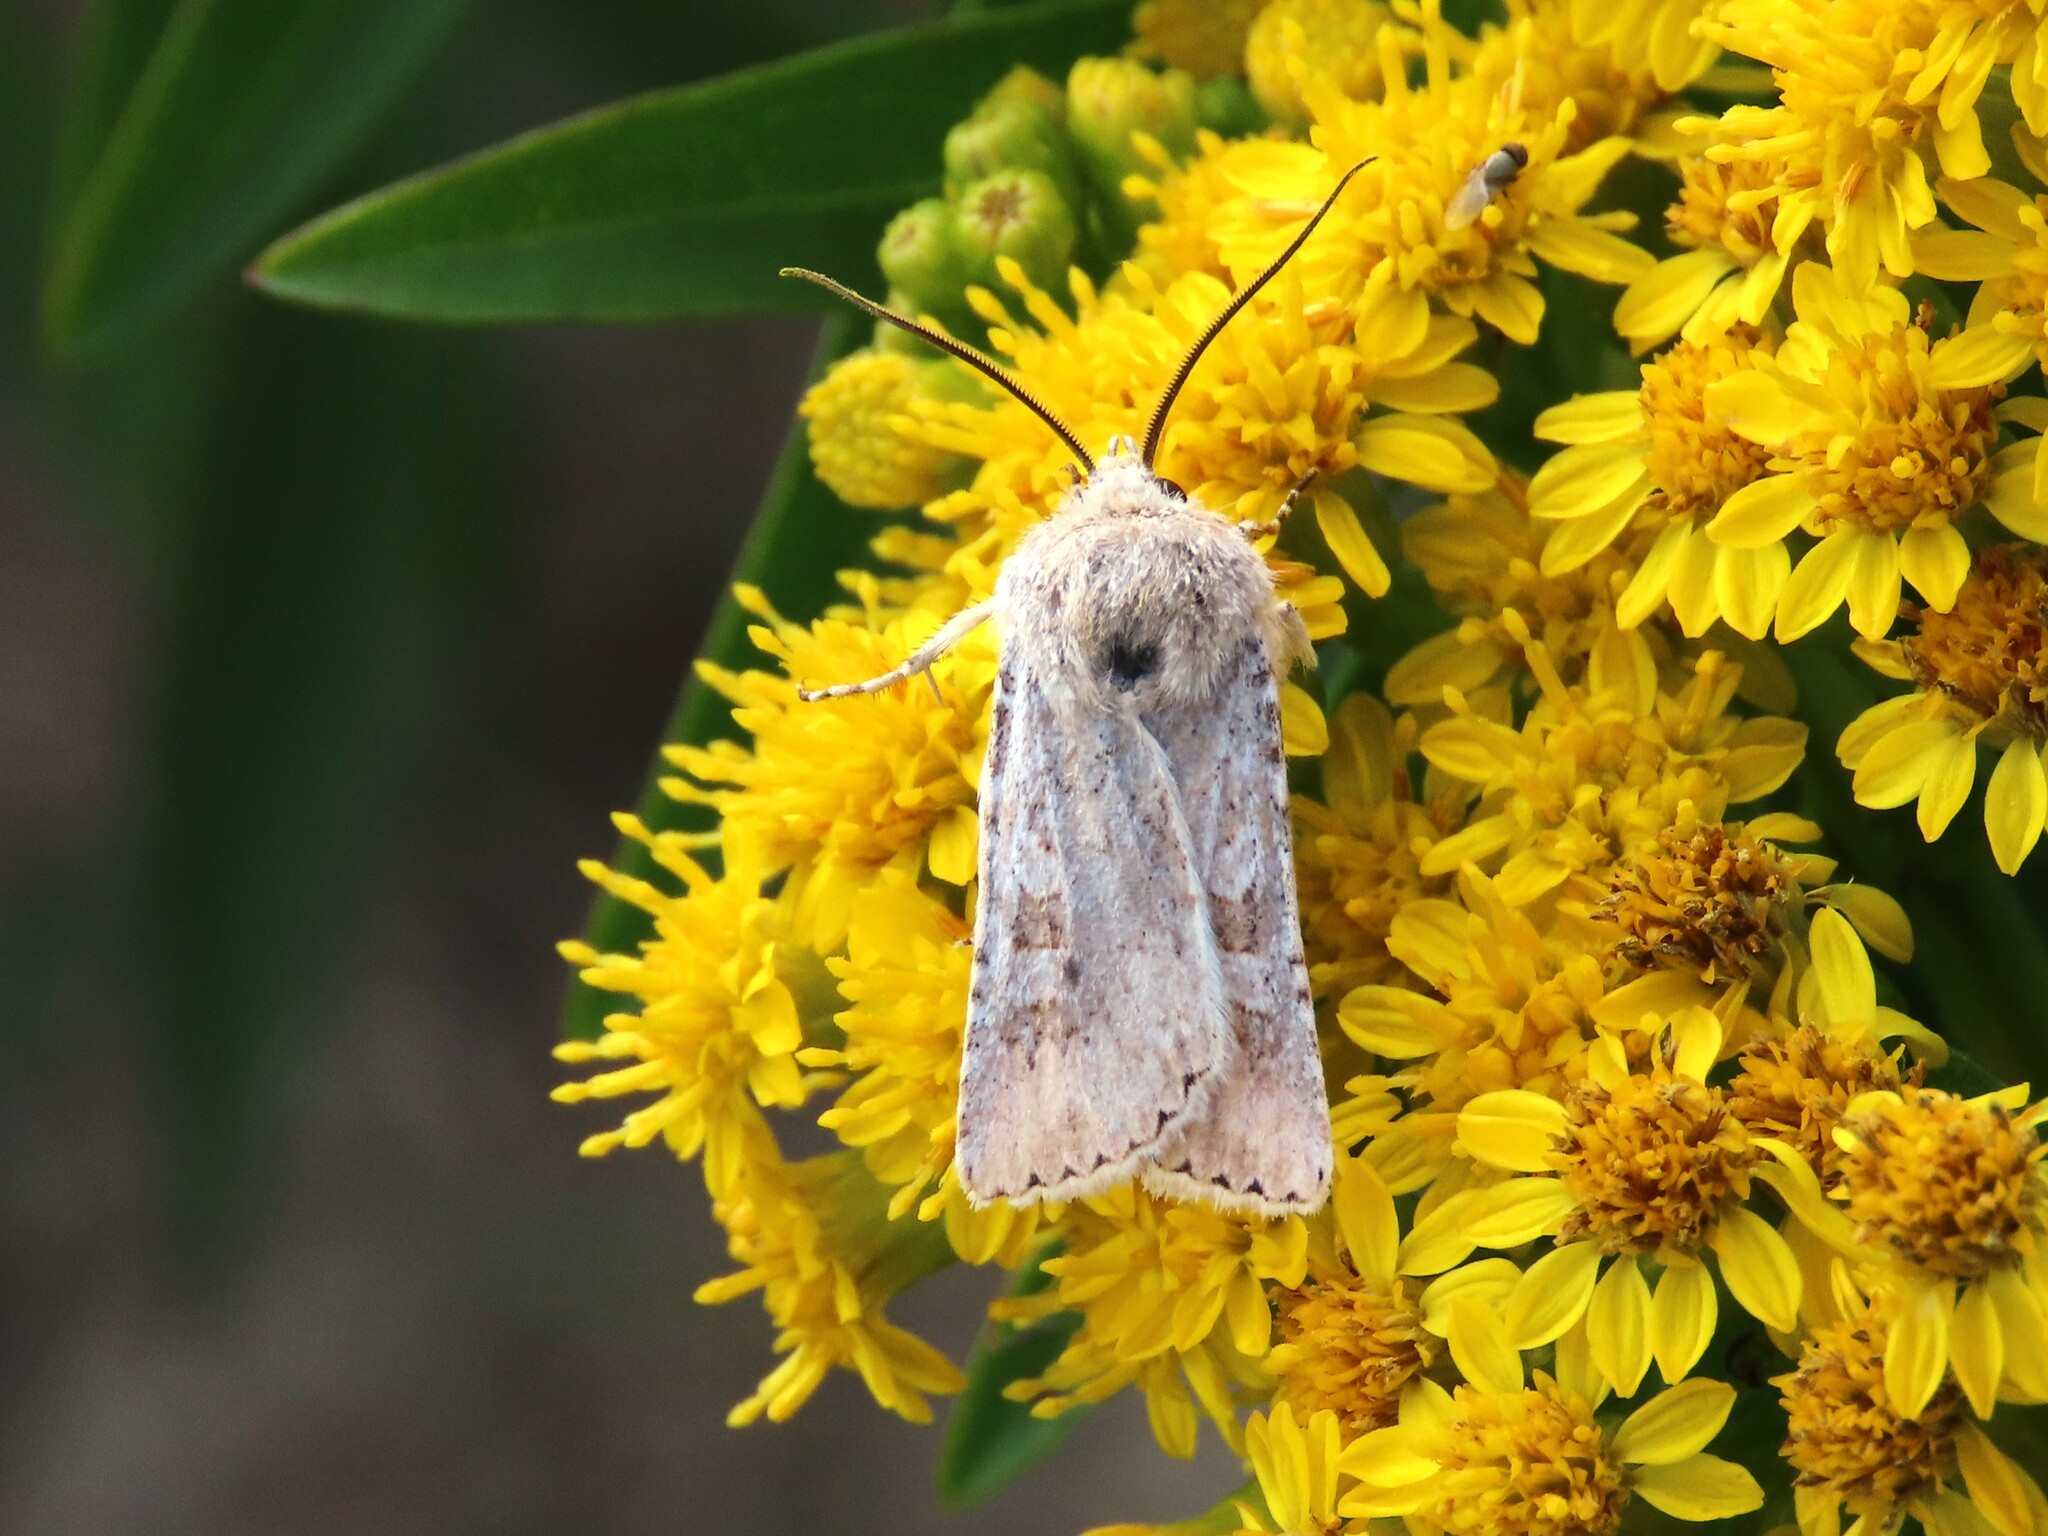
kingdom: Animalia
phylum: Arthropoda
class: Insecta
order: Lepidoptera
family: Noctuidae
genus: Euxoa
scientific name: Euxoa detersa
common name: Rubbed dart
